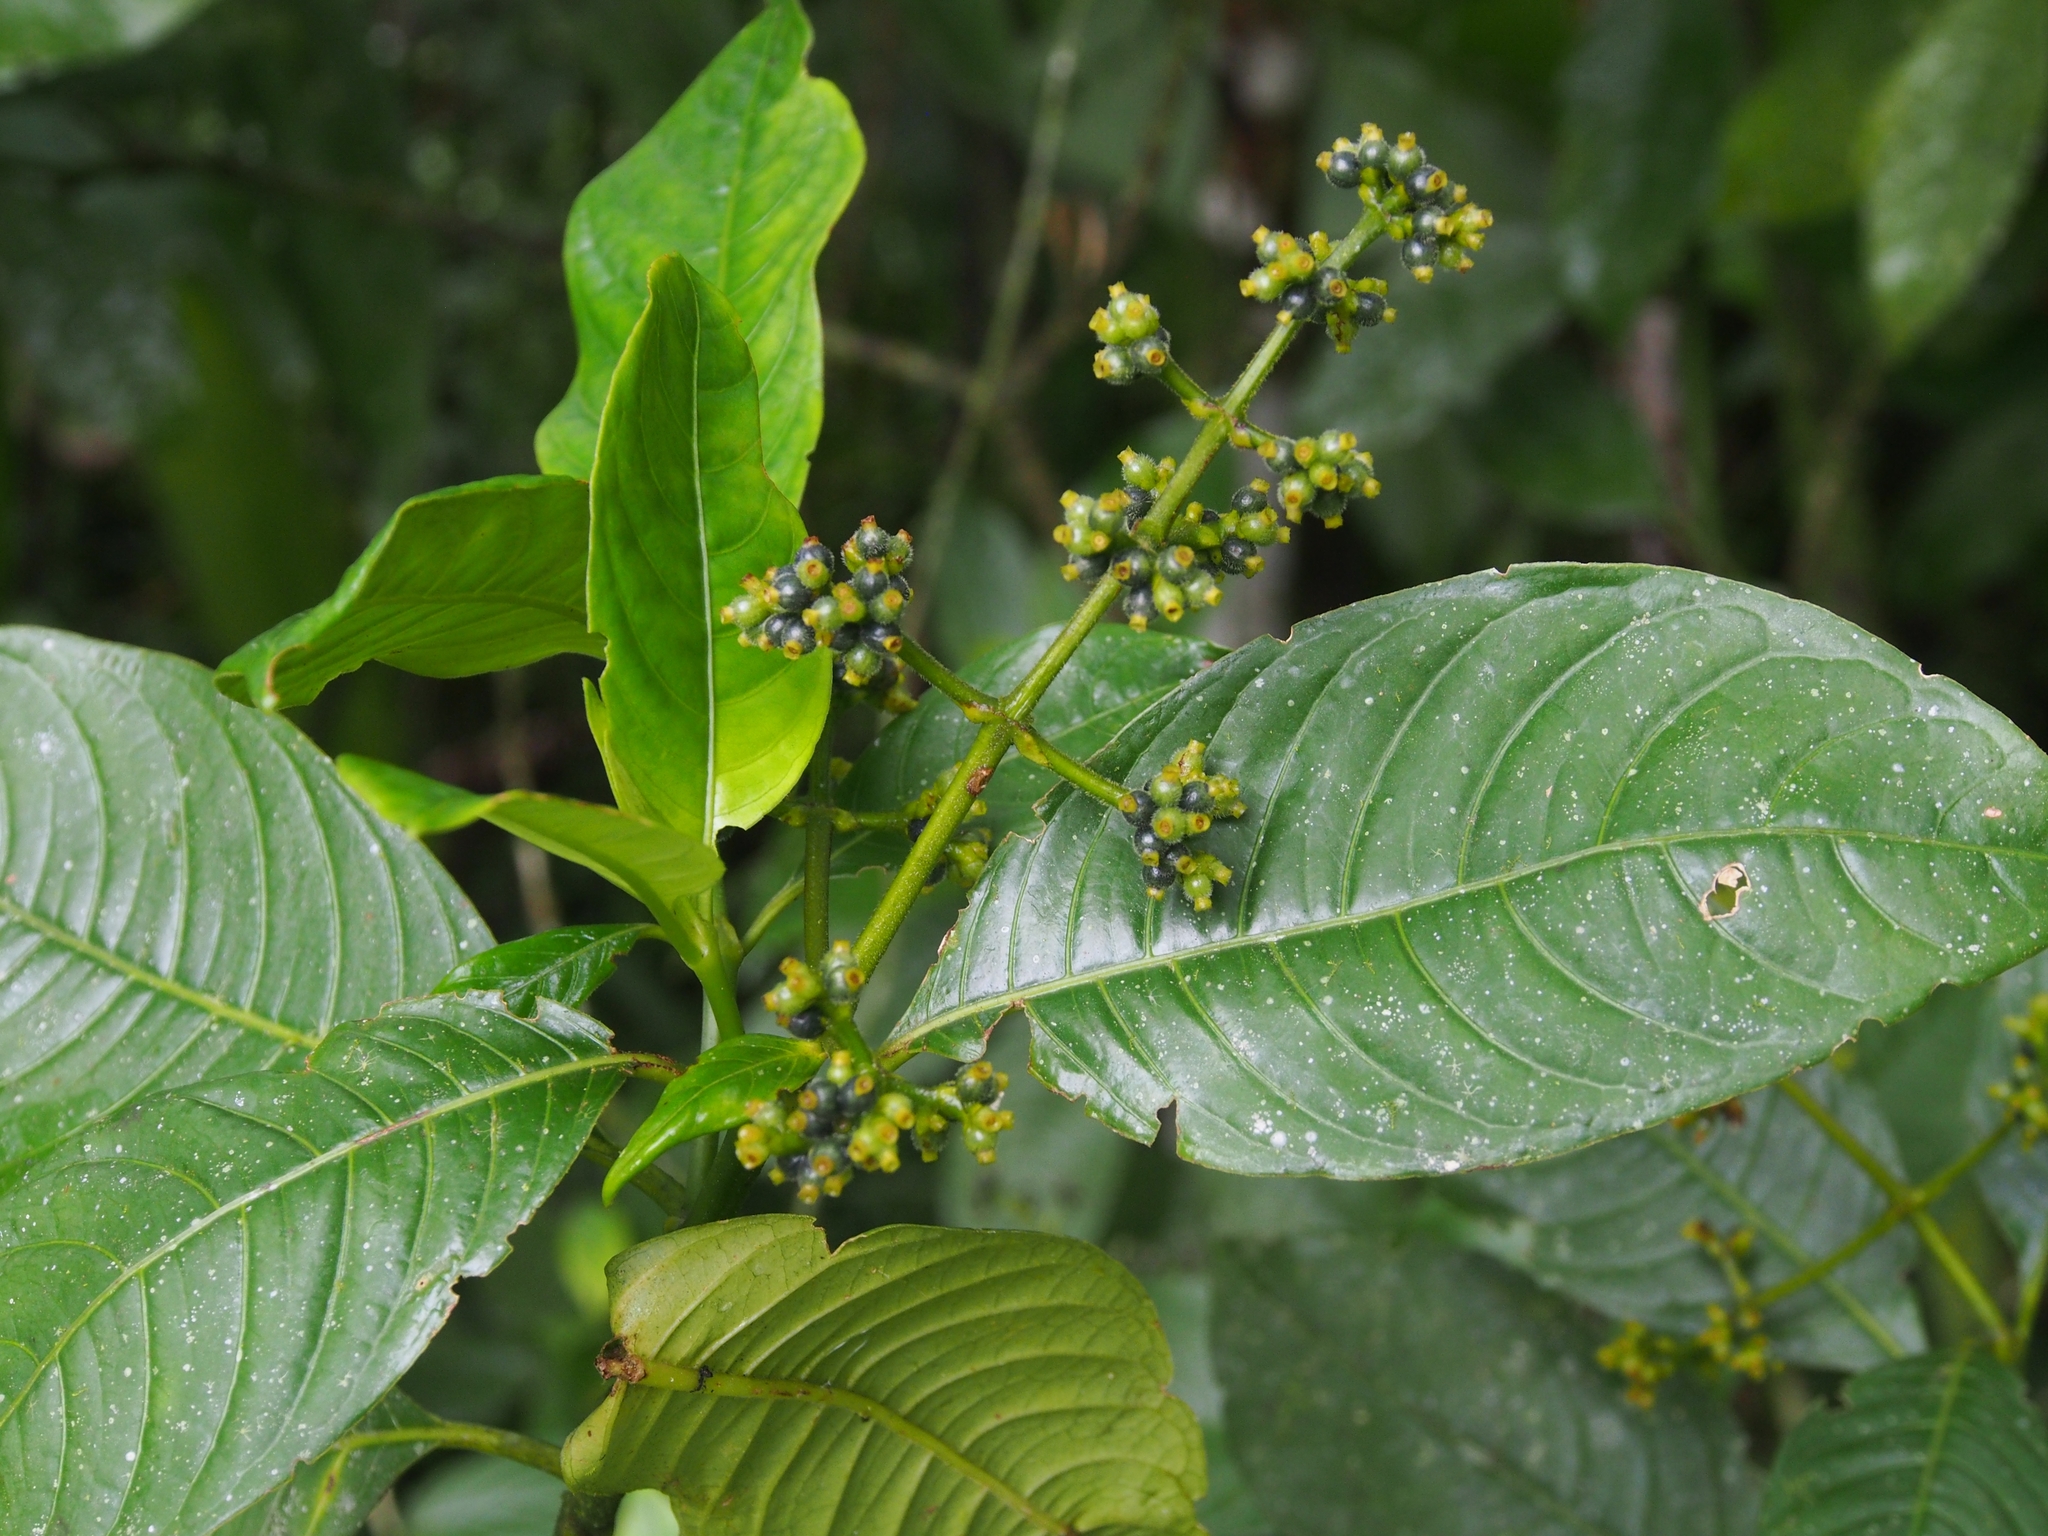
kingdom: Plantae
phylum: Tracheophyta
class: Magnoliopsida
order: Gentianales
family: Rubiaceae
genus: Palicourea
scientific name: Palicourea brachiata
